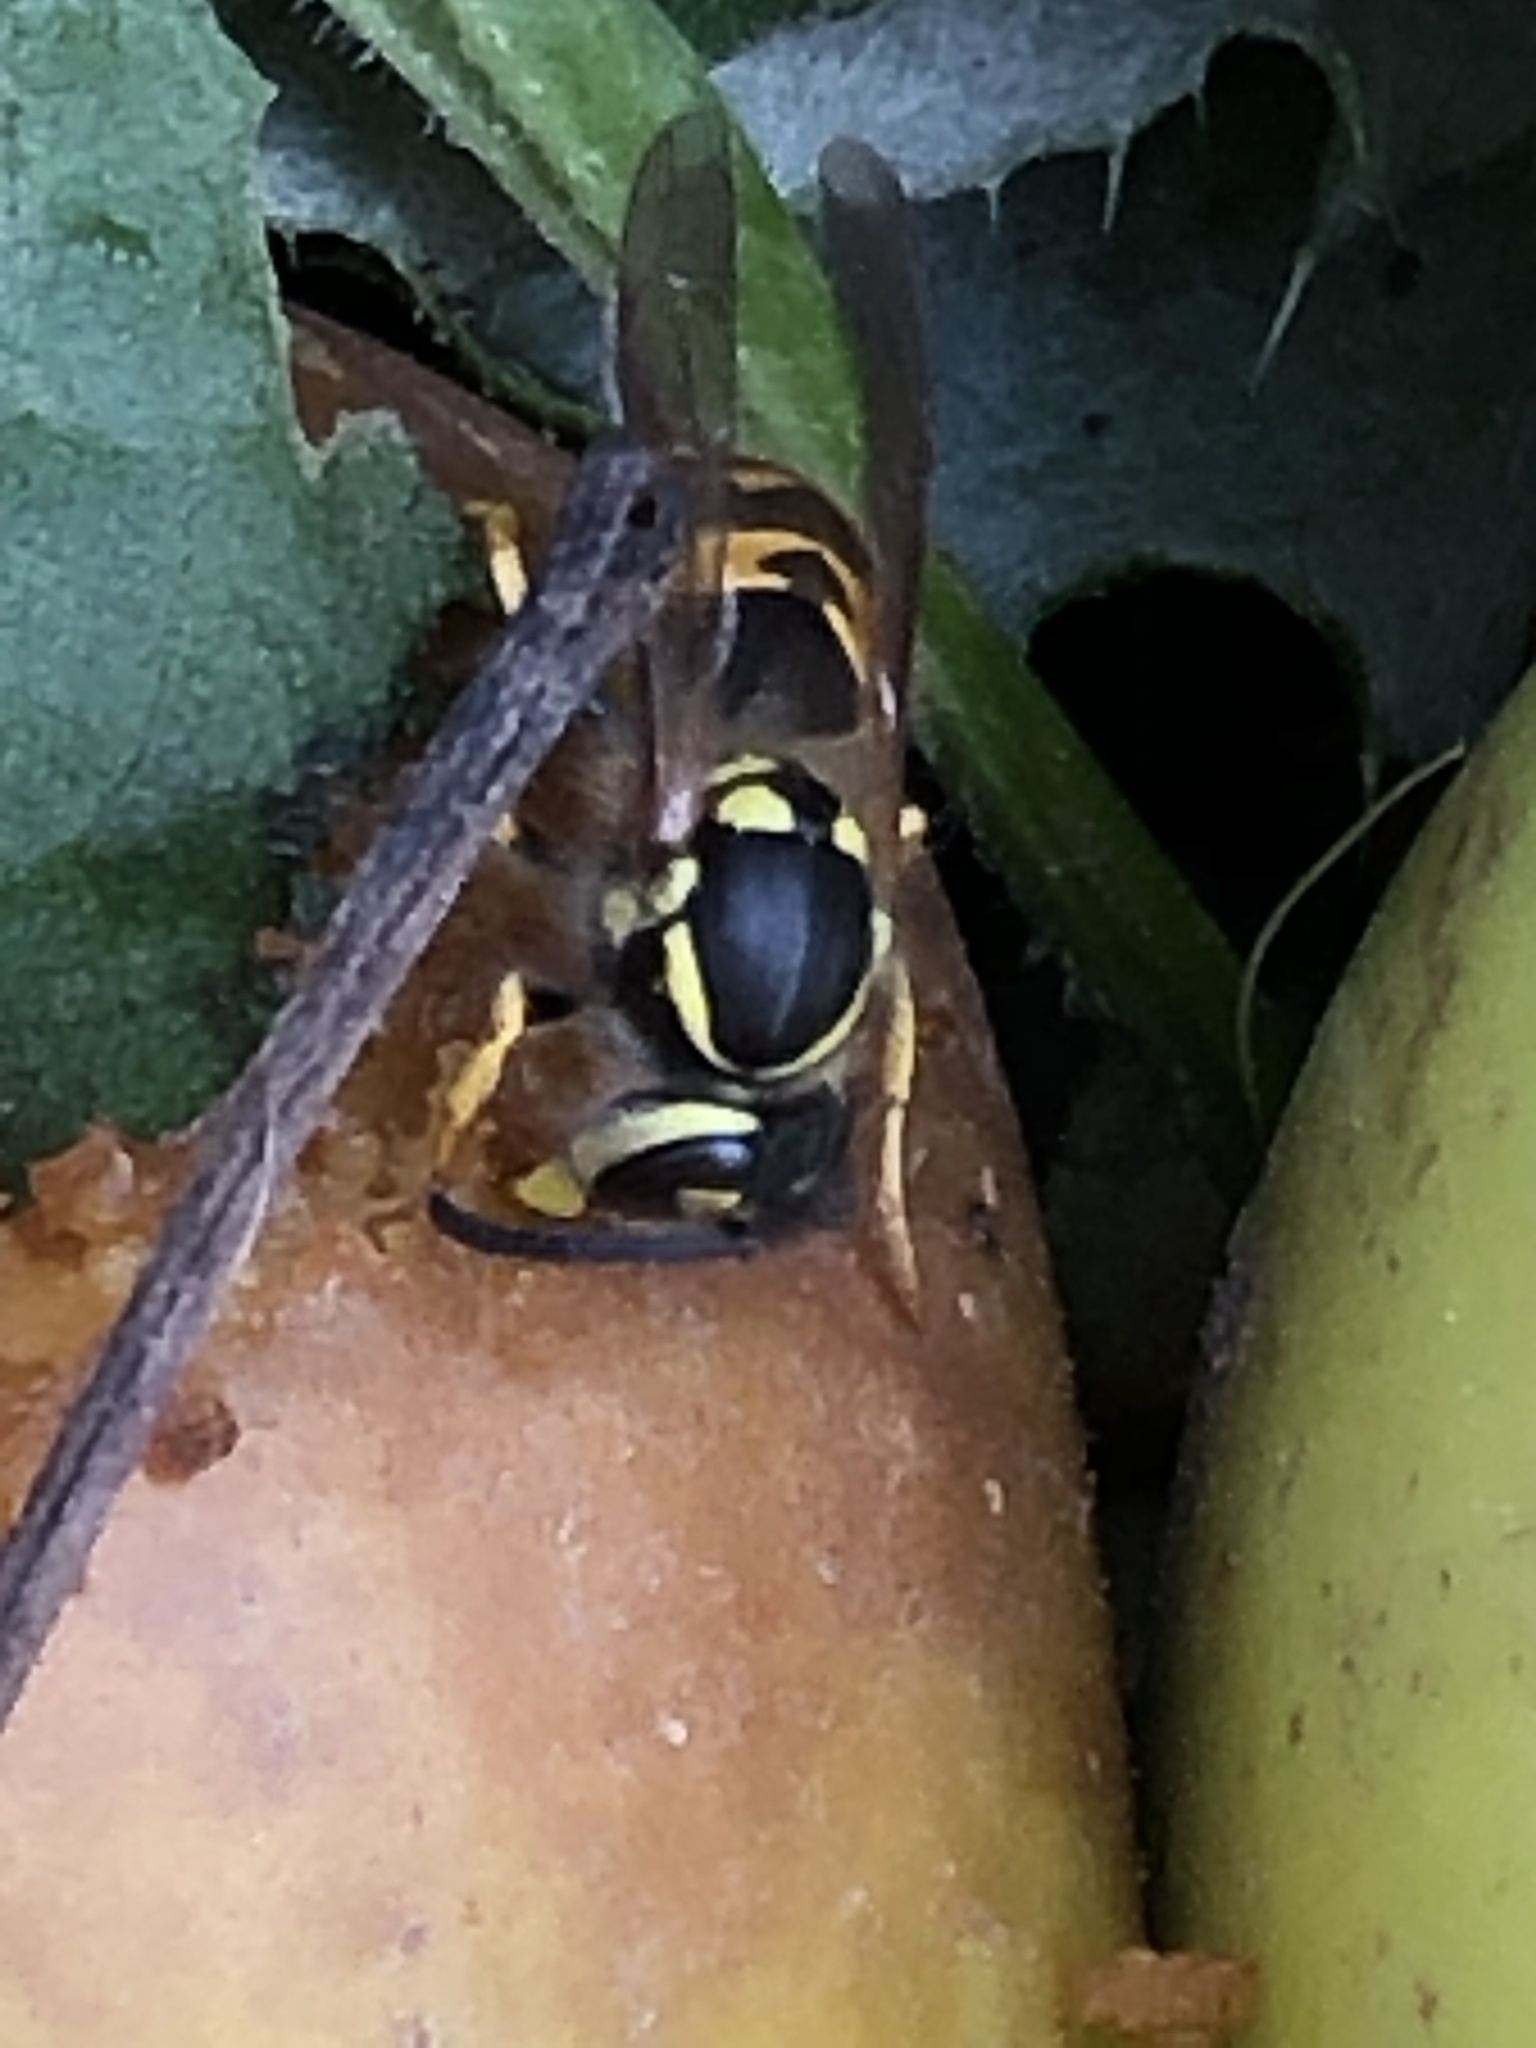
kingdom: Animalia
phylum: Arthropoda
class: Insecta
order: Hymenoptera
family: Vespidae
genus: Vespula
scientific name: Vespula germanica
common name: German wasp
